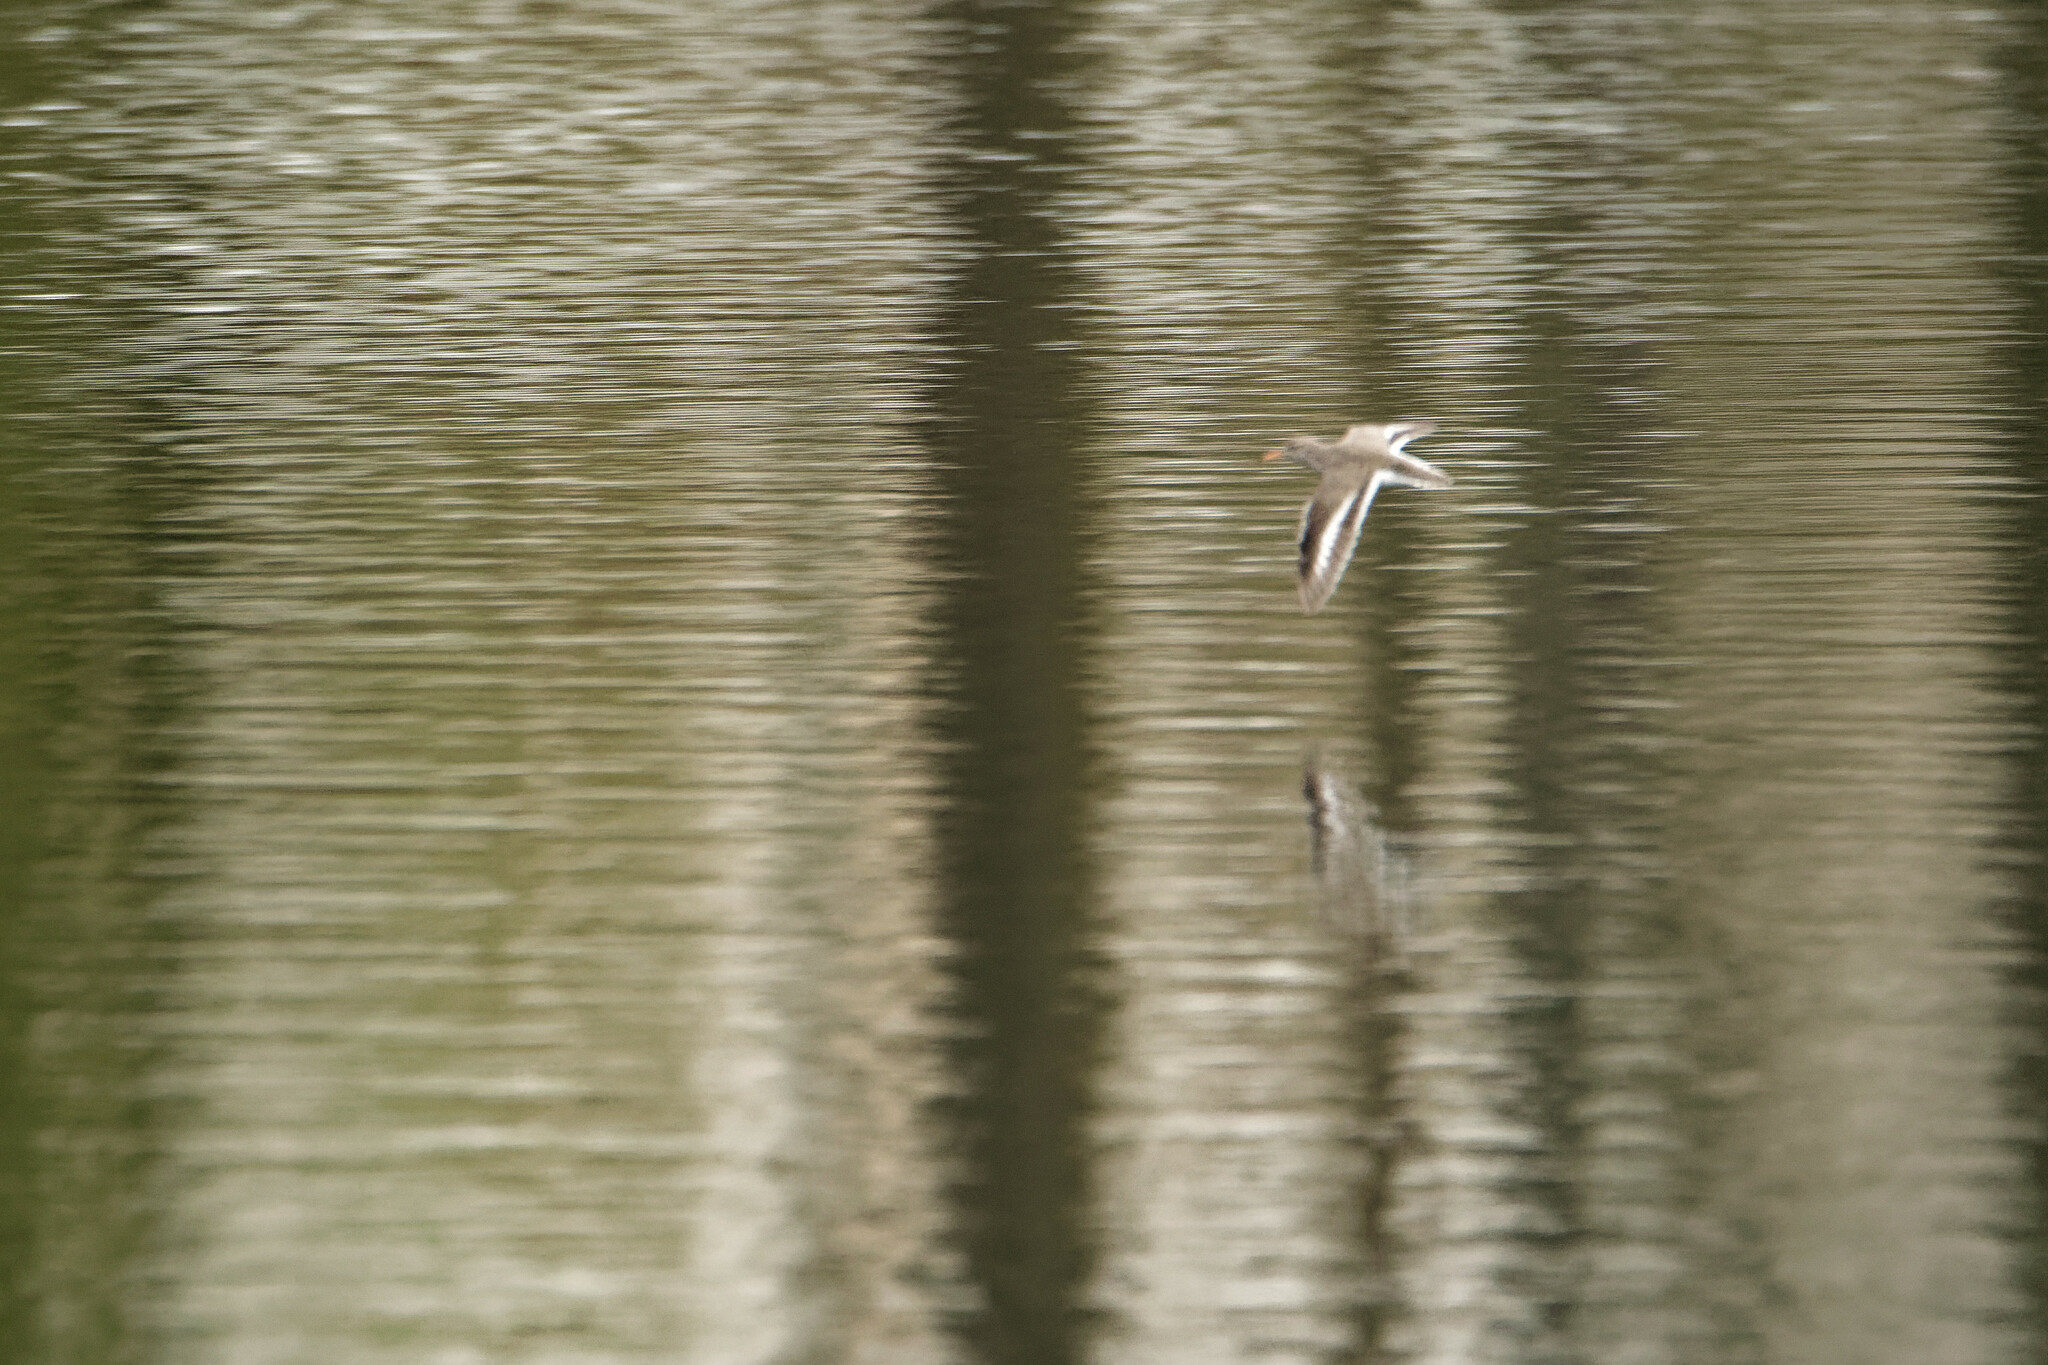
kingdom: Animalia
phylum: Chordata
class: Aves
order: Charadriiformes
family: Scolopacidae
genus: Actitis
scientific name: Actitis macularius
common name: Spotted sandpiper
